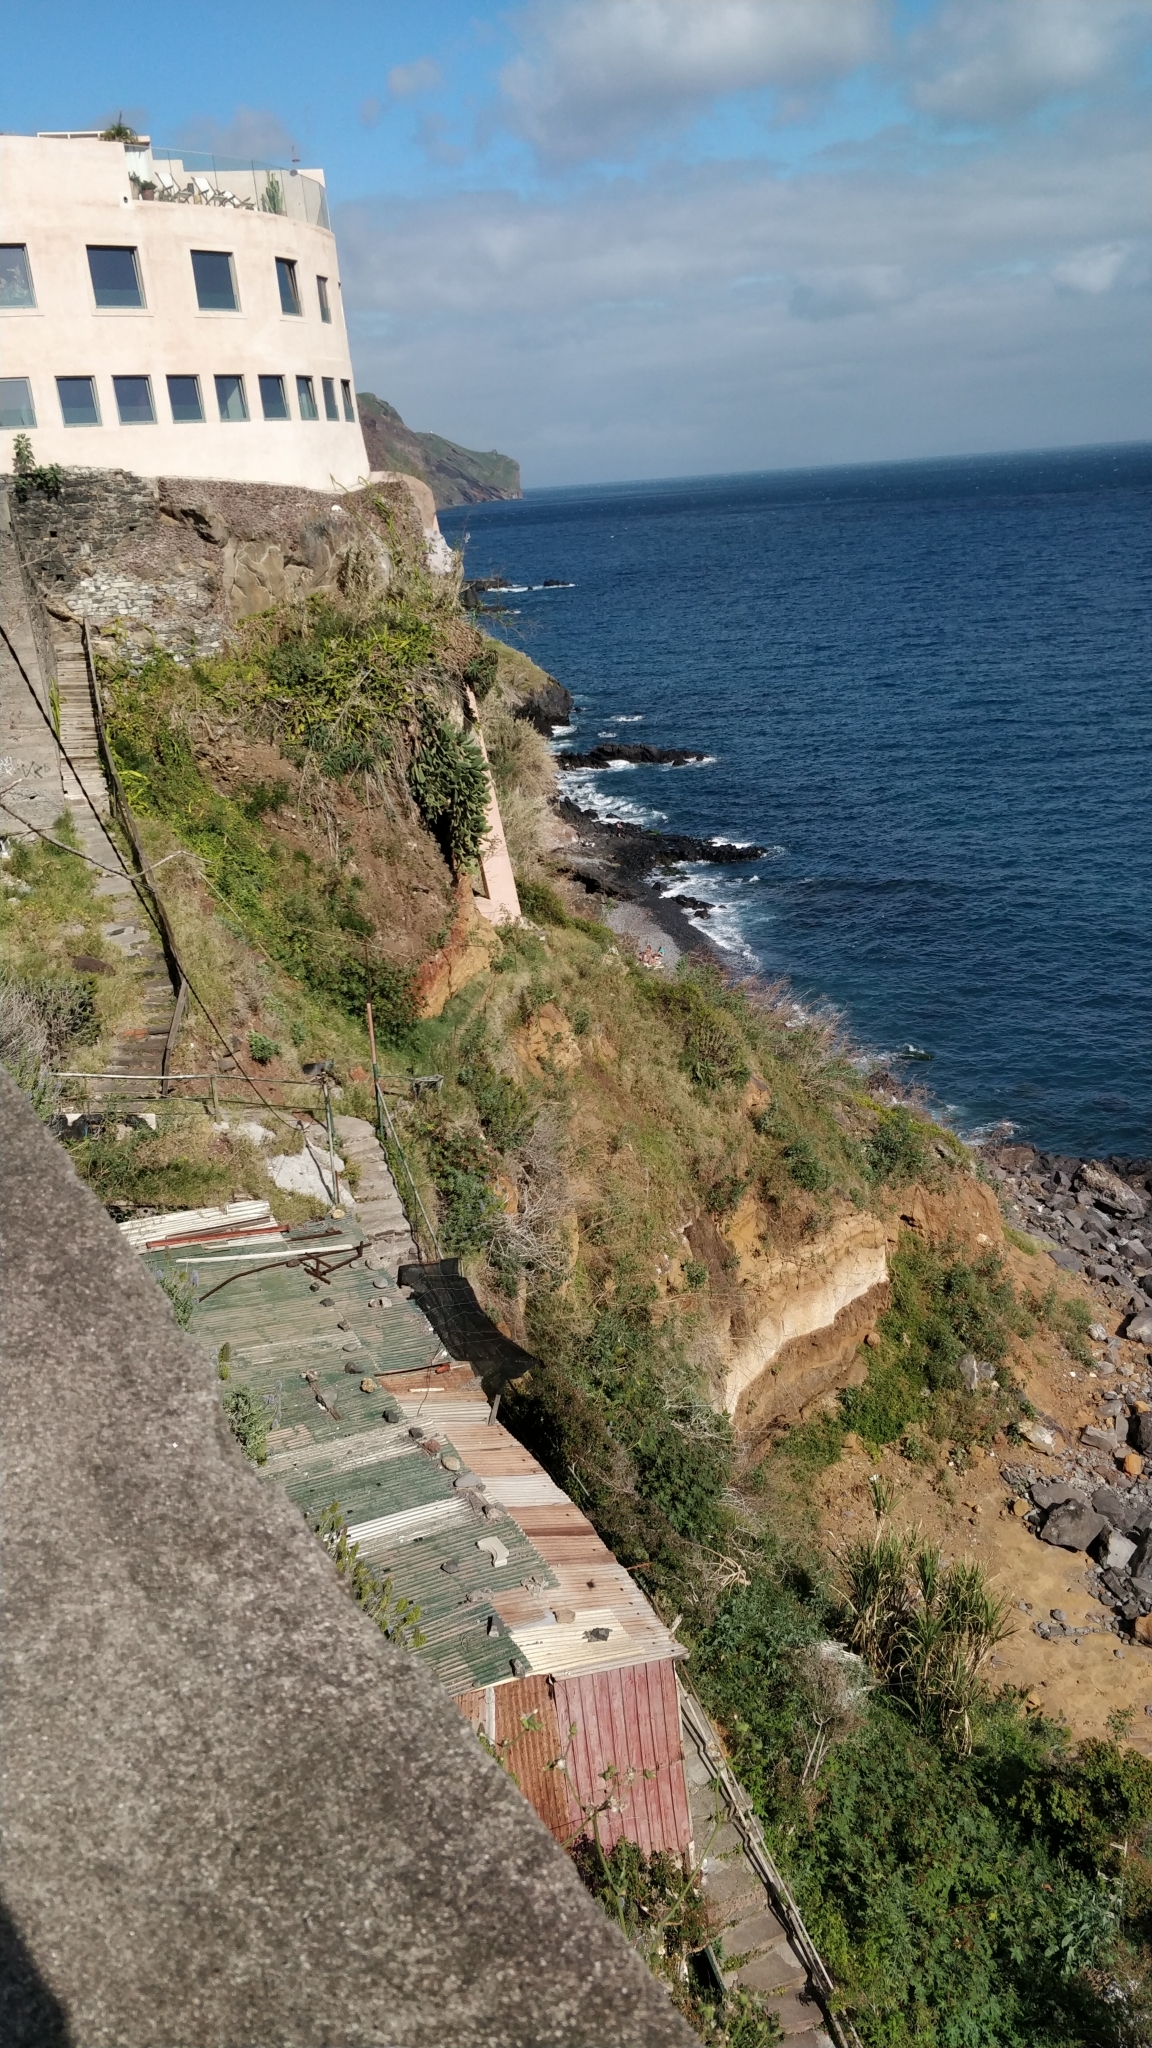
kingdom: Plantae
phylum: Tracheophyta
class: Magnoliopsida
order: Caryophyllales
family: Cactaceae
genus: Selenicereus
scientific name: Selenicereus undatus
